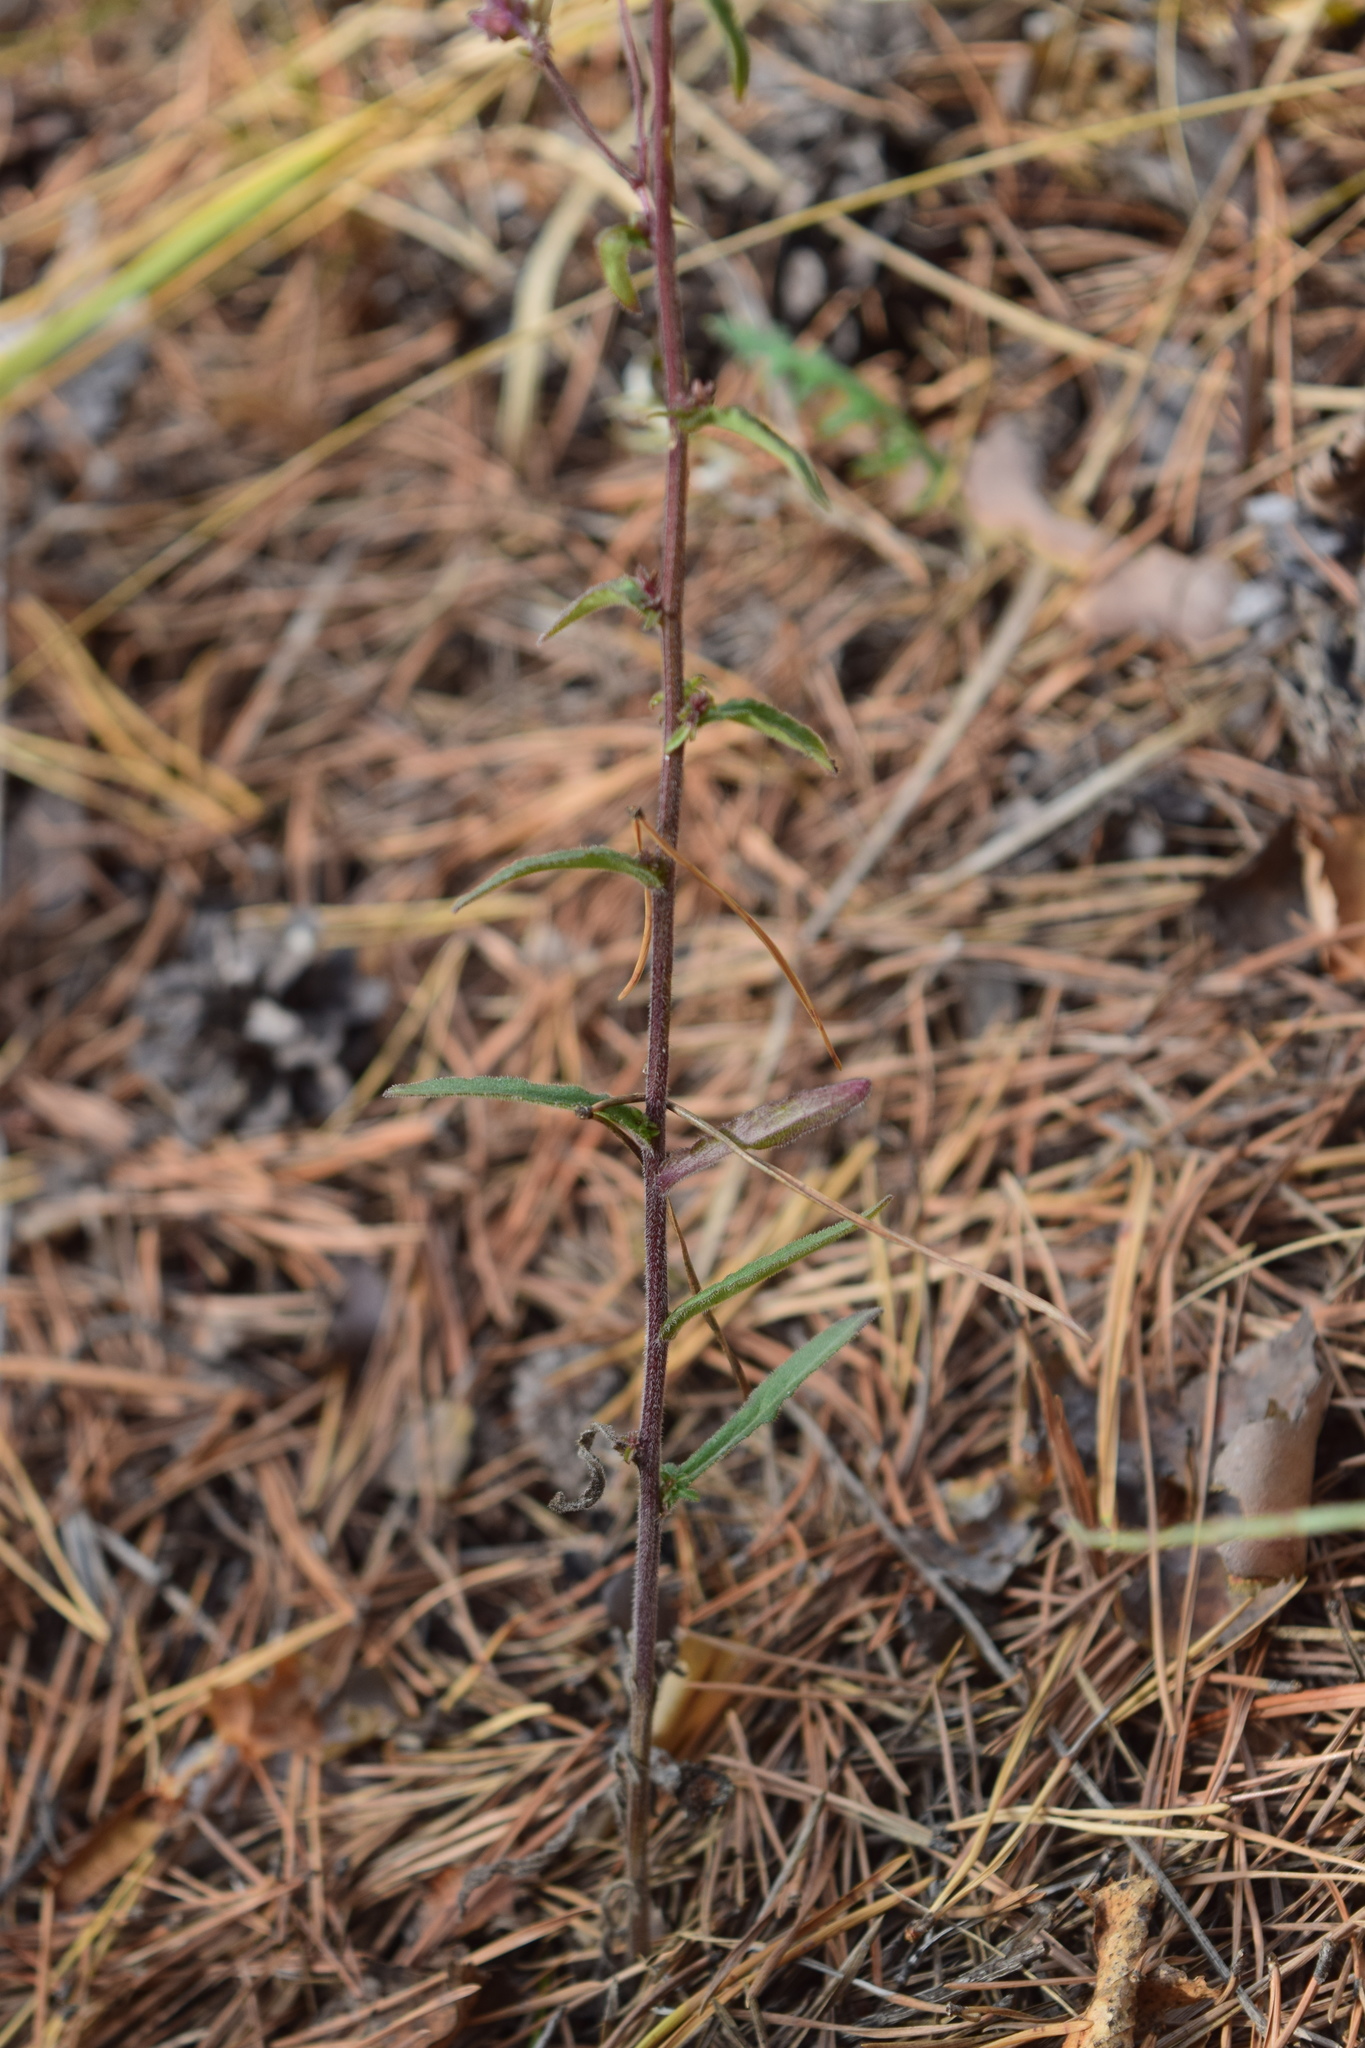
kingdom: Plantae
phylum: Tracheophyta
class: Magnoliopsida
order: Asterales
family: Campanulaceae
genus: Campanula
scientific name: Campanula sibirica
